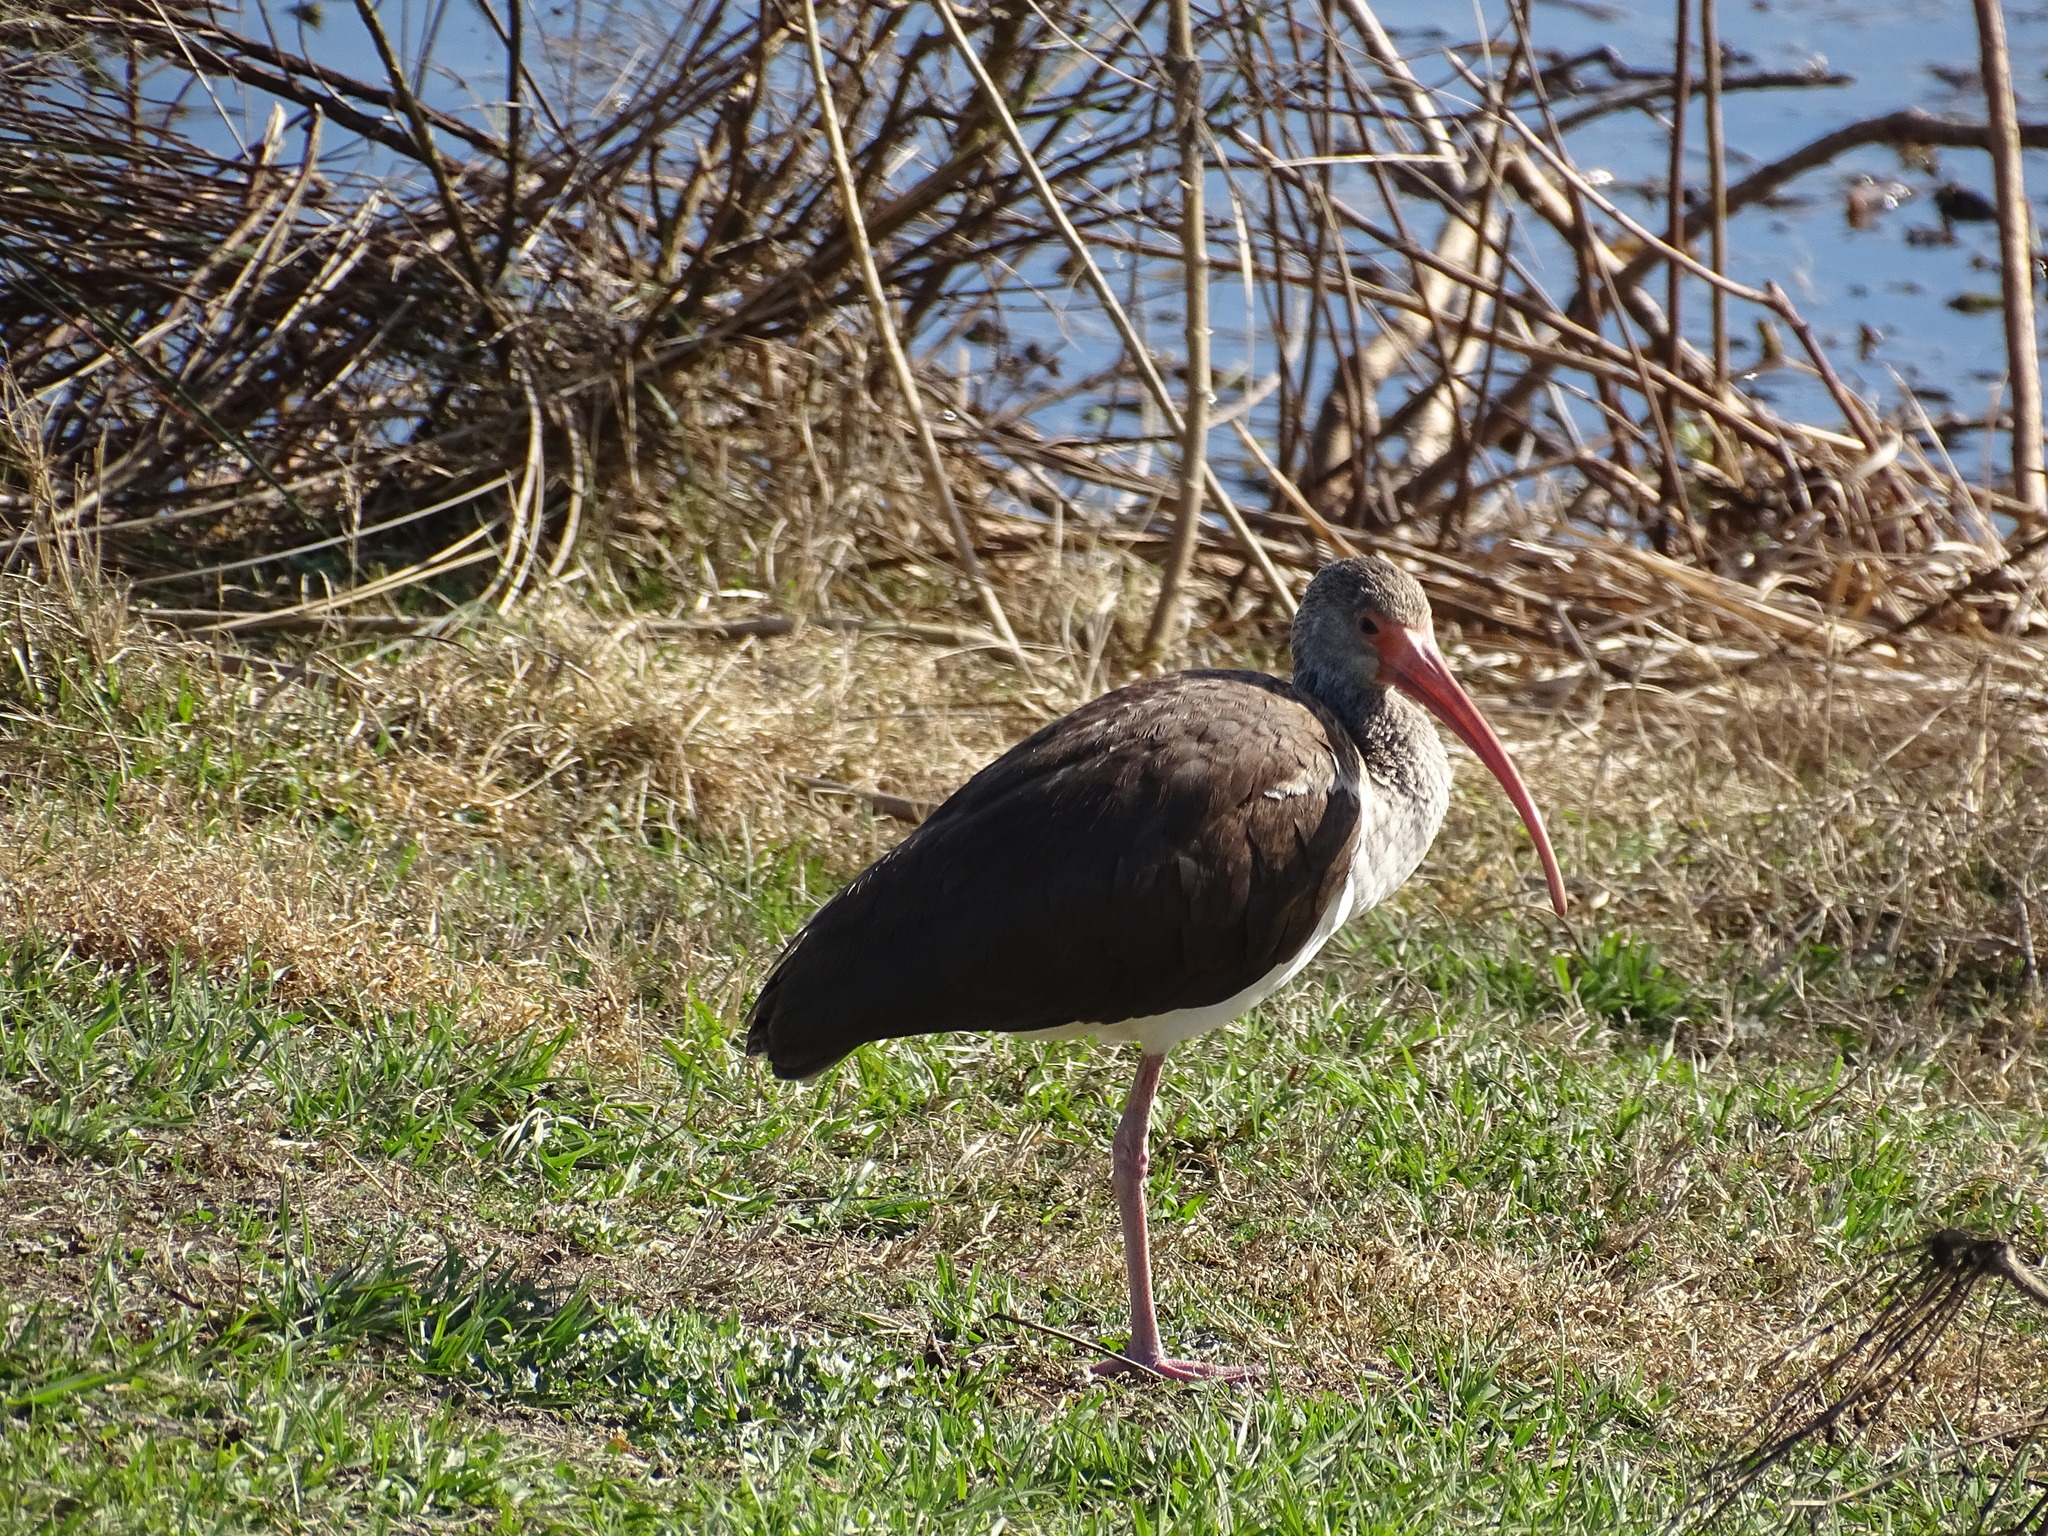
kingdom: Animalia
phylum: Chordata
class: Aves
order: Pelecaniformes
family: Threskiornithidae
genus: Eudocimus
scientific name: Eudocimus albus
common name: White ibis
